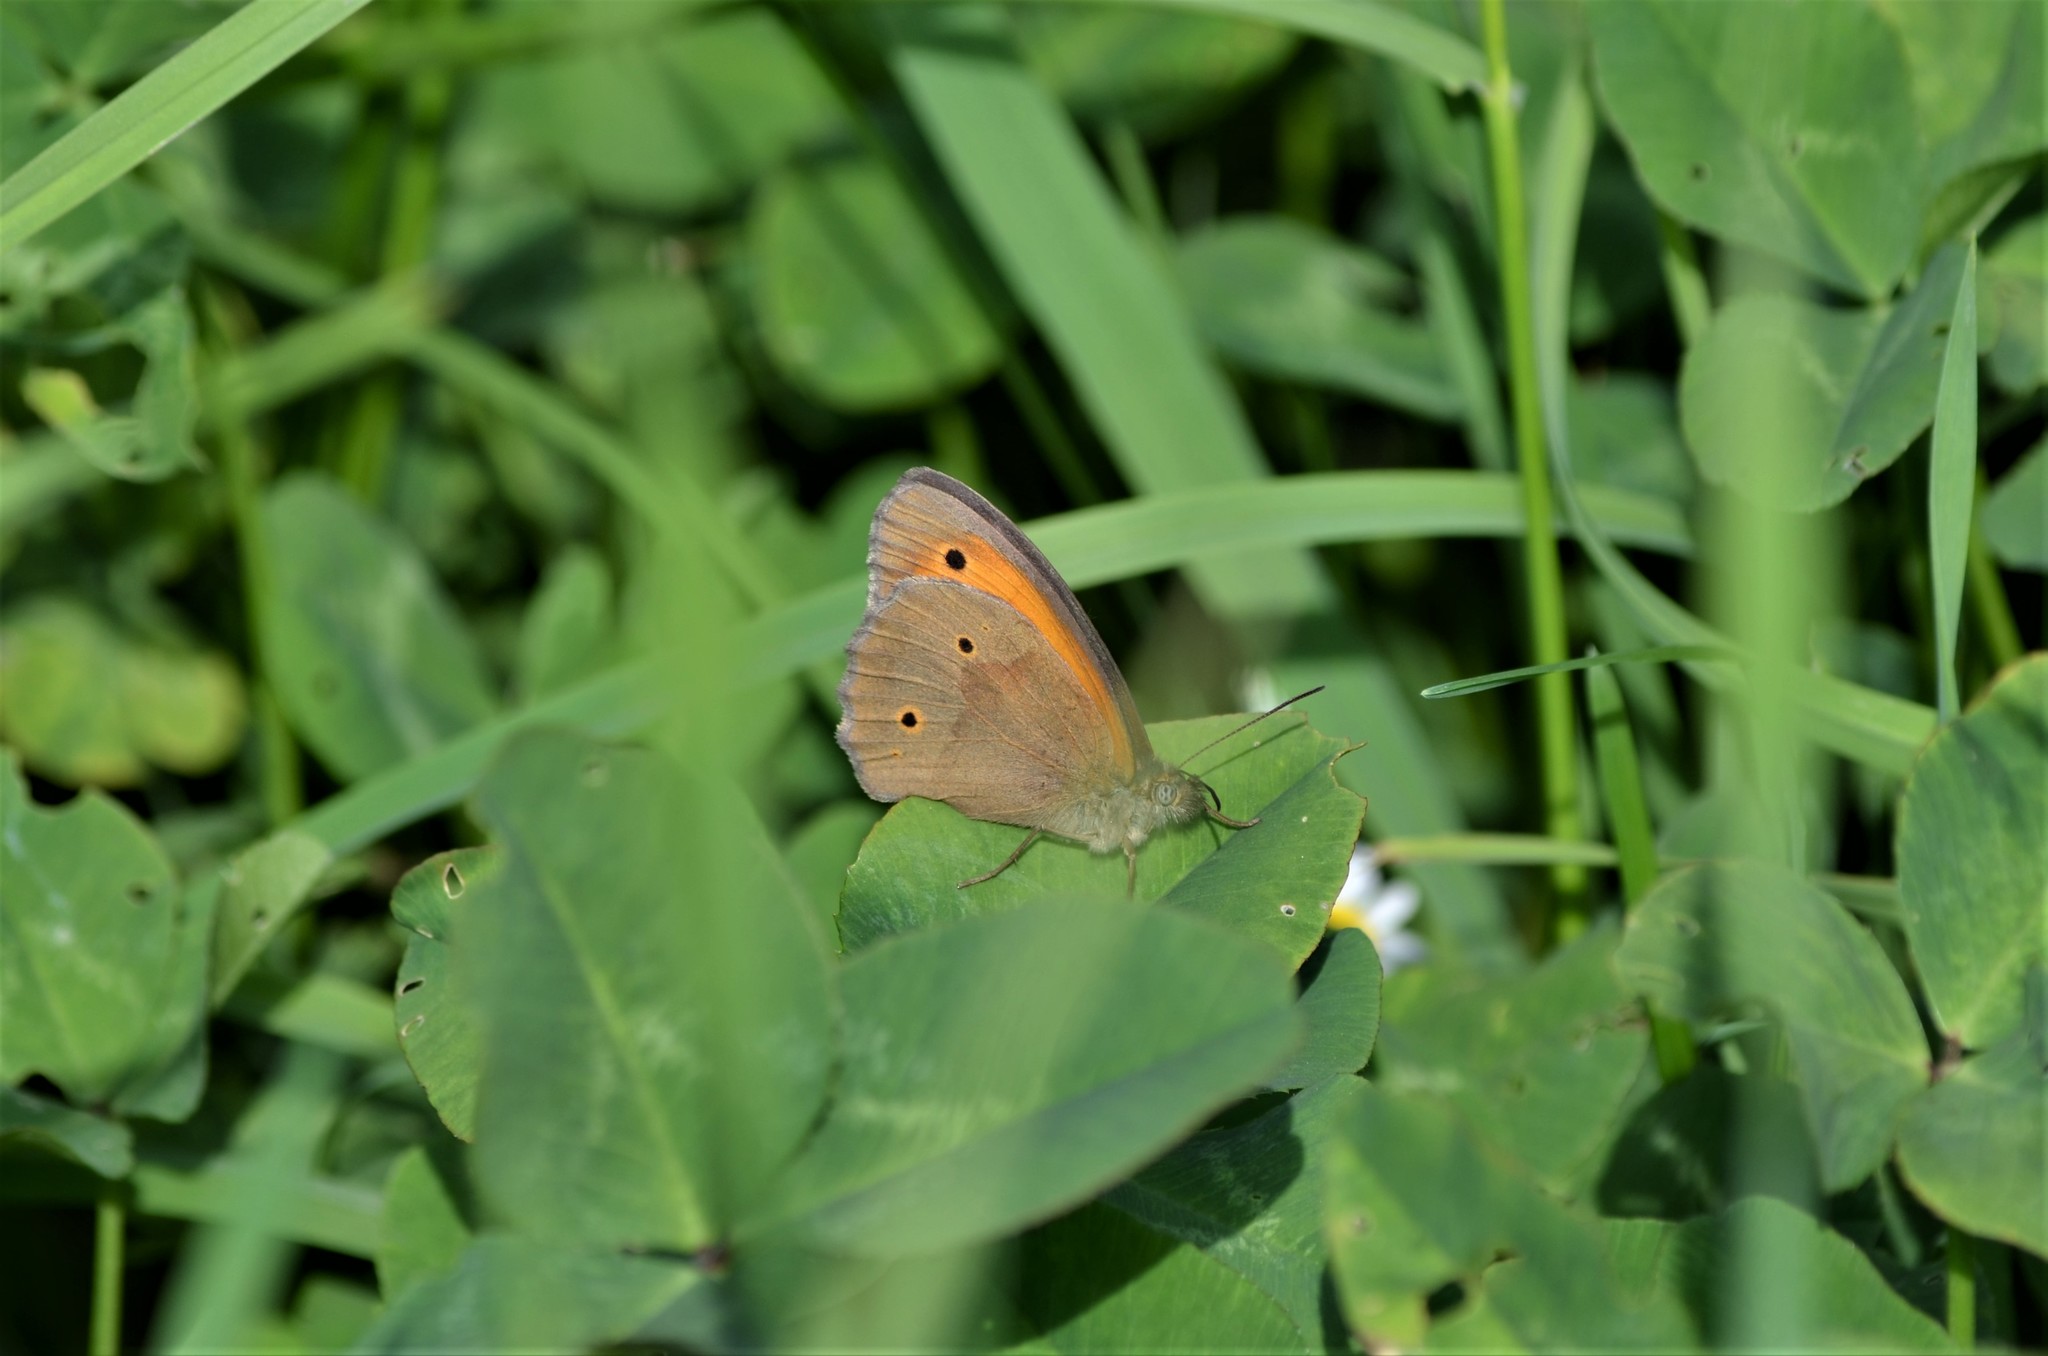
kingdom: Animalia
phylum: Arthropoda
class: Insecta
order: Lepidoptera
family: Nymphalidae
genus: Maniola
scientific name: Maniola jurtina
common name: Meadow brown
